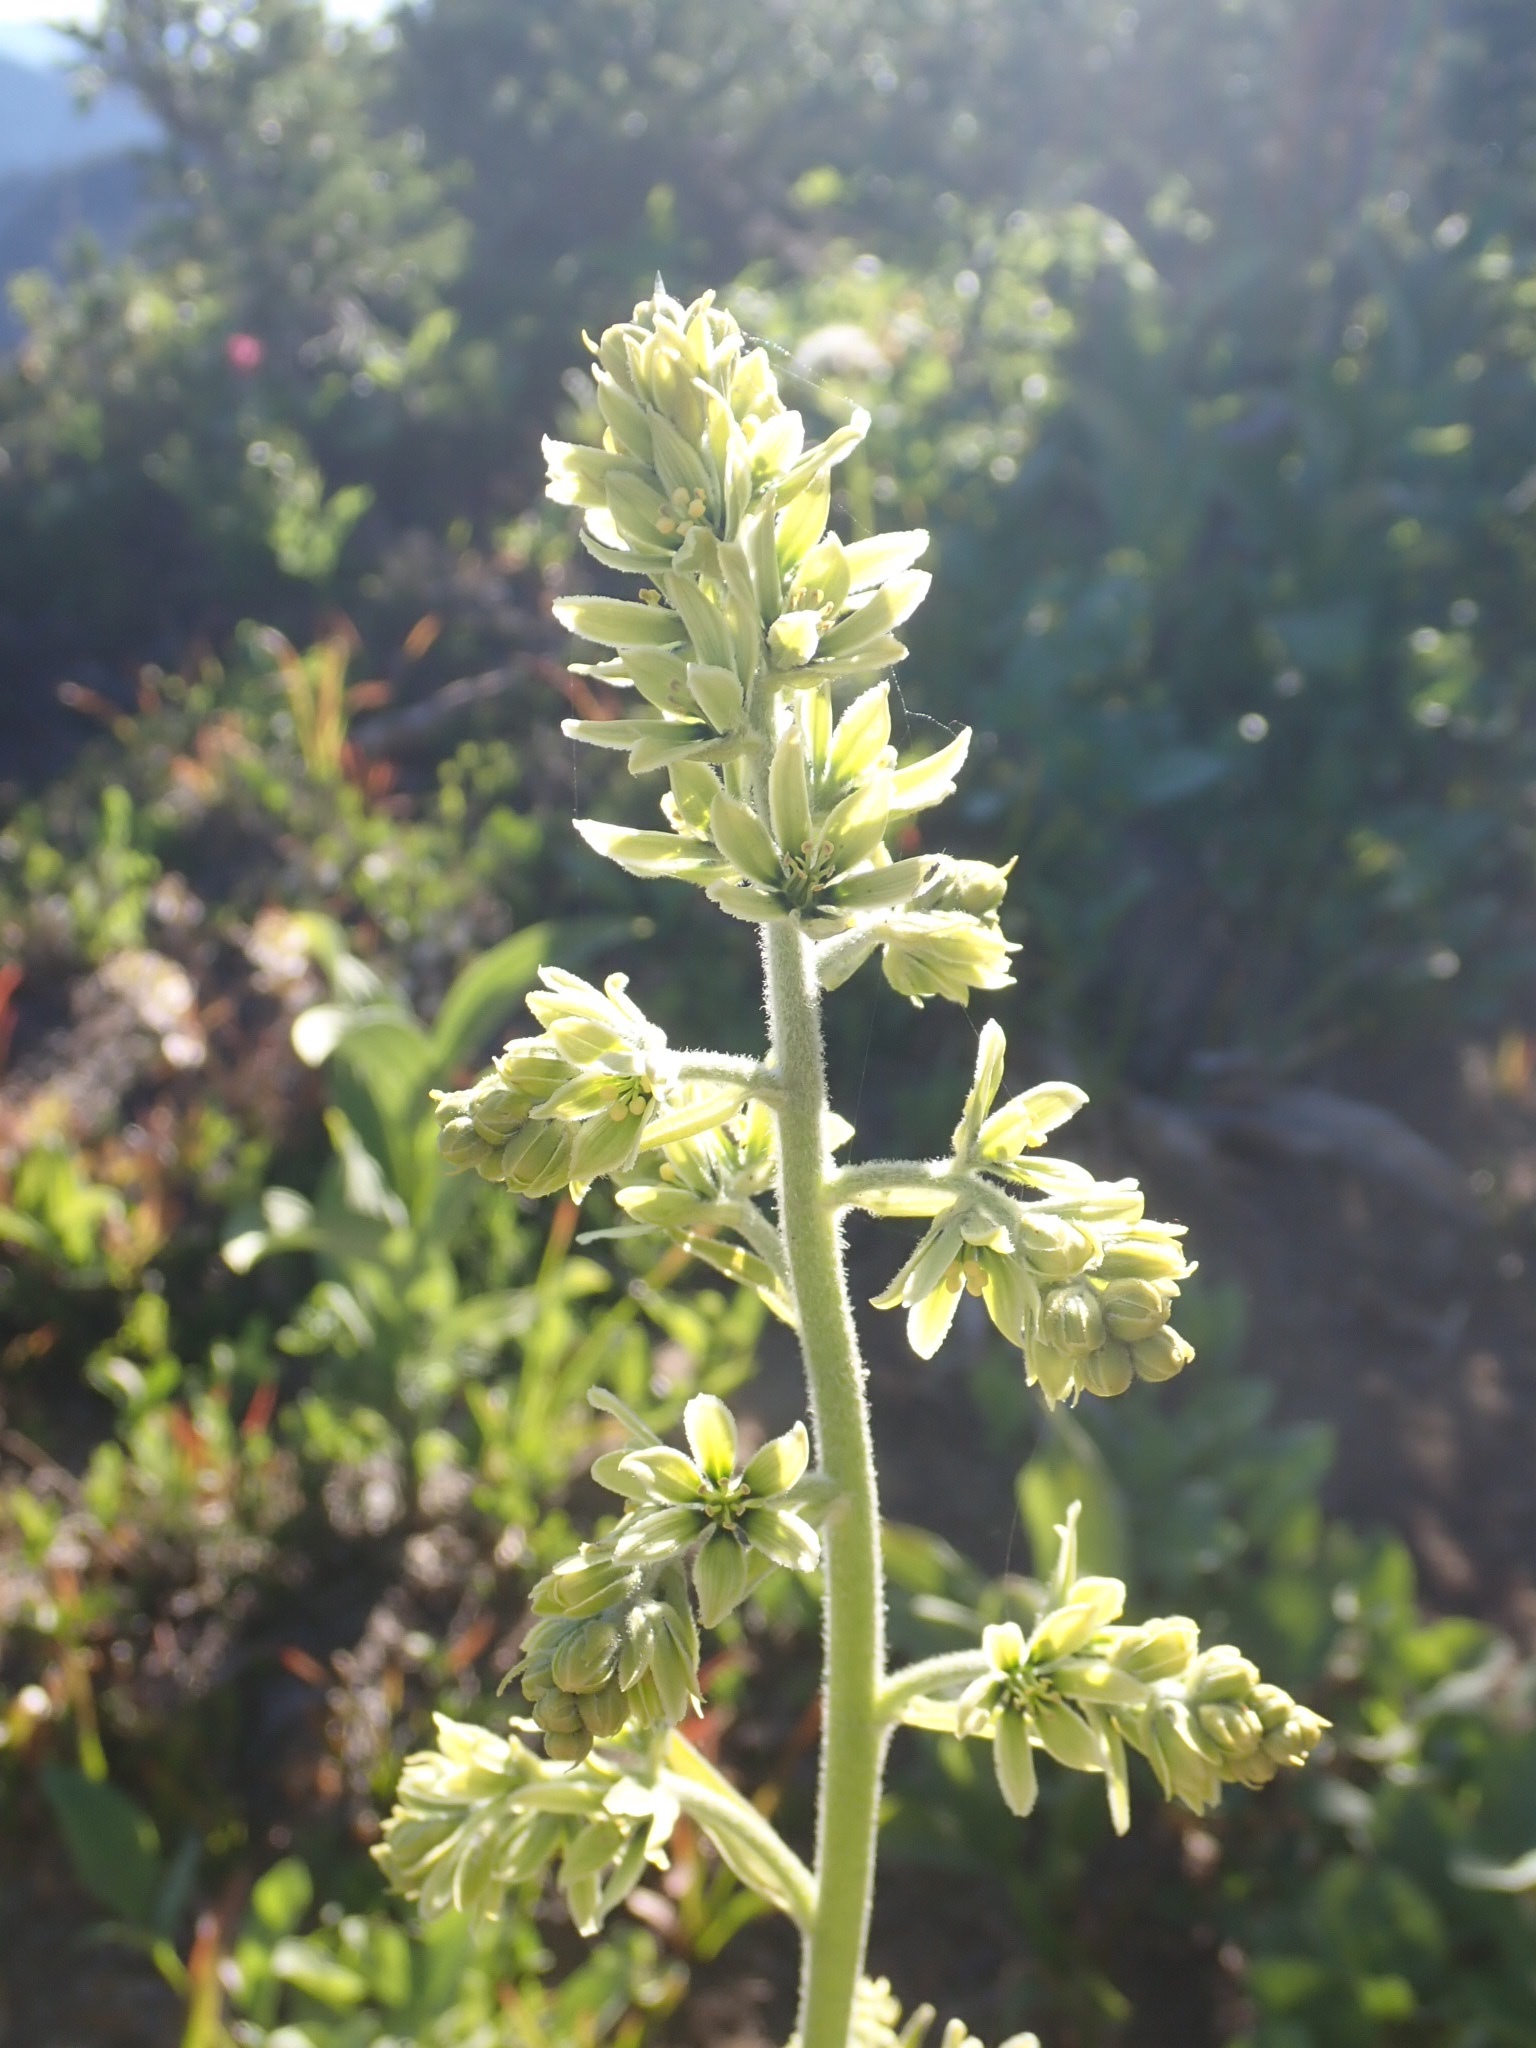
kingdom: Plantae
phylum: Tracheophyta
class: Liliopsida
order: Liliales
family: Melanthiaceae
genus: Veratrum
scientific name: Veratrum viride
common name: American false hellebore
